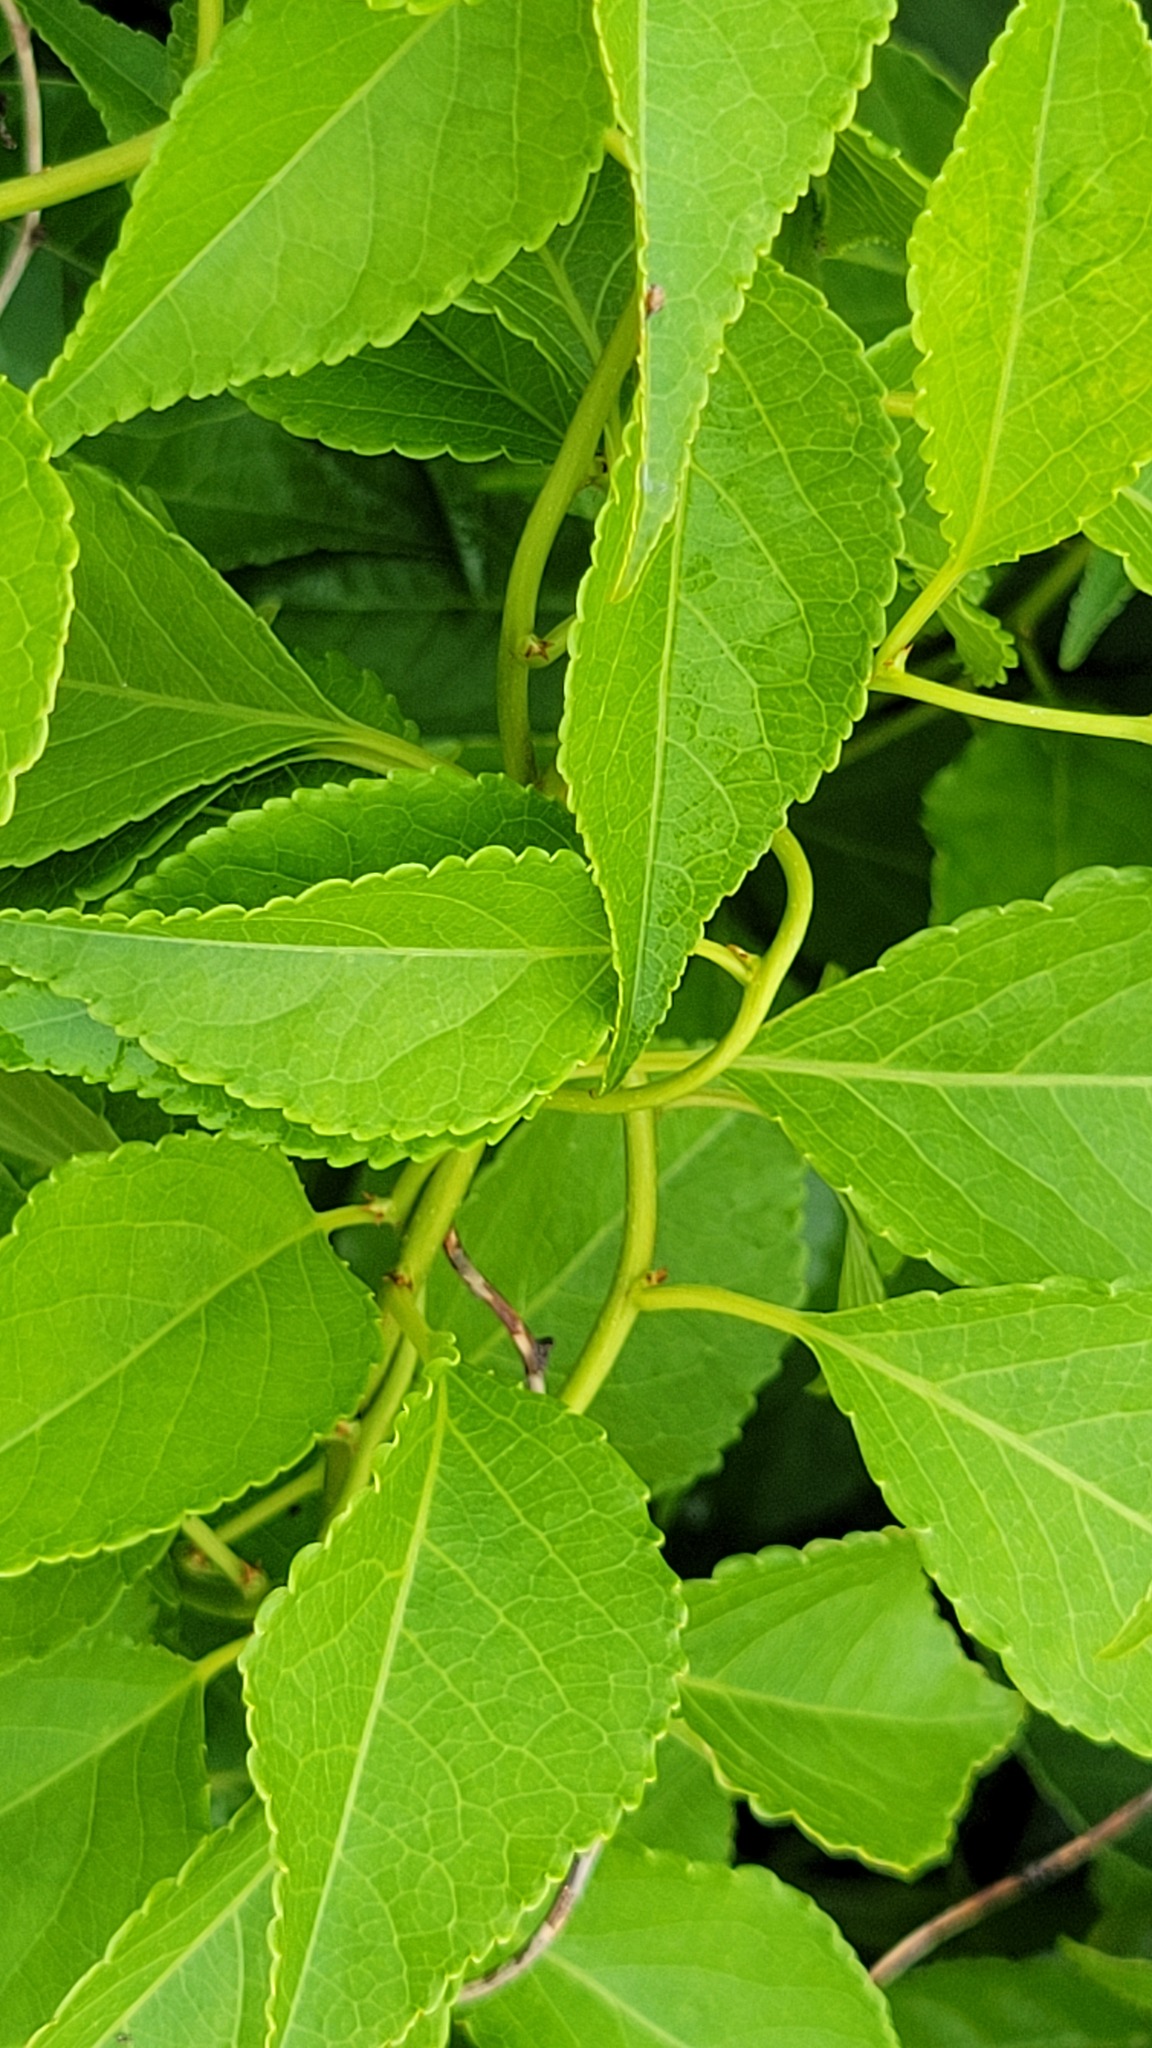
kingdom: Plantae
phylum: Tracheophyta
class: Magnoliopsida
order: Celastrales
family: Celastraceae
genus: Celastrus
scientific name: Celastrus orbiculatus
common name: Oriental bittersweet
